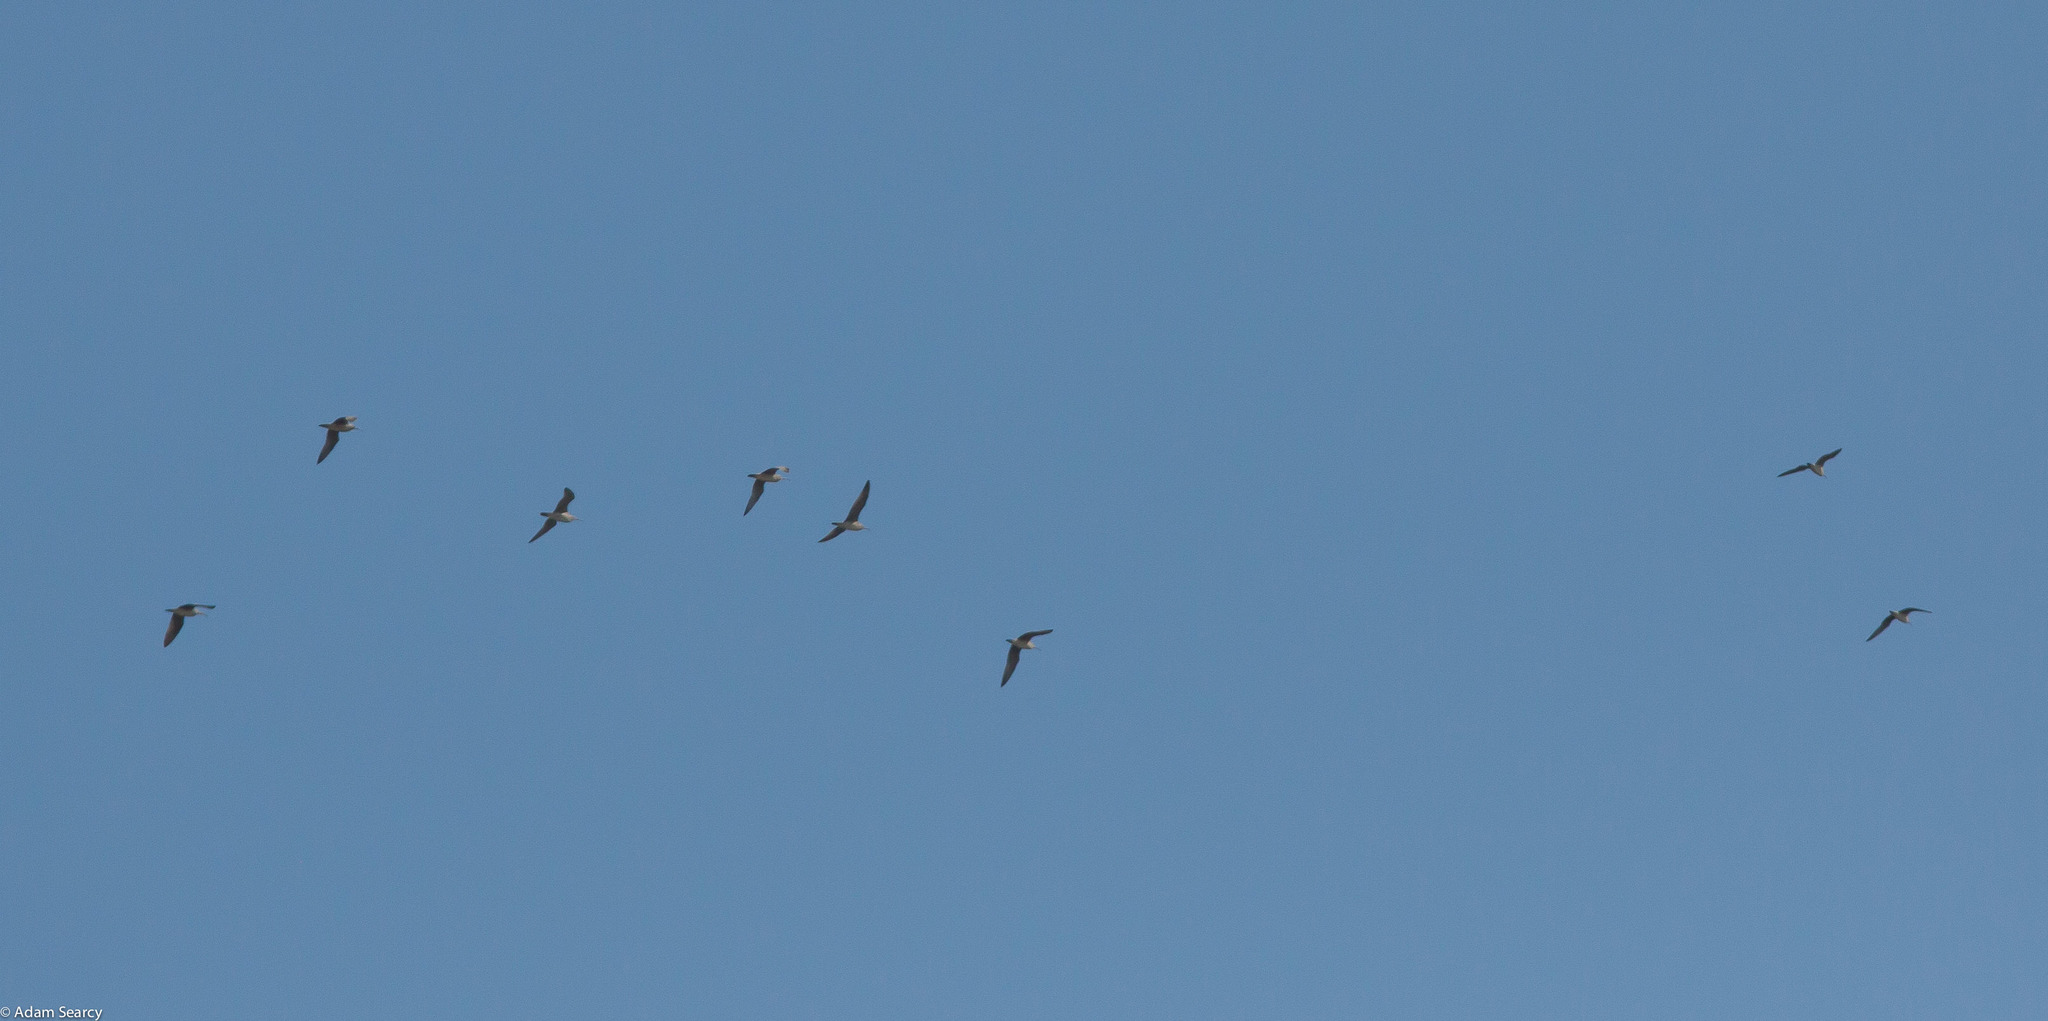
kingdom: Animalia
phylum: Chordata
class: Aves
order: Charadriiformes
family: Scolopacidae
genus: Numenius
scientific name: Numenius phaeopus
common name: Whimbrel
